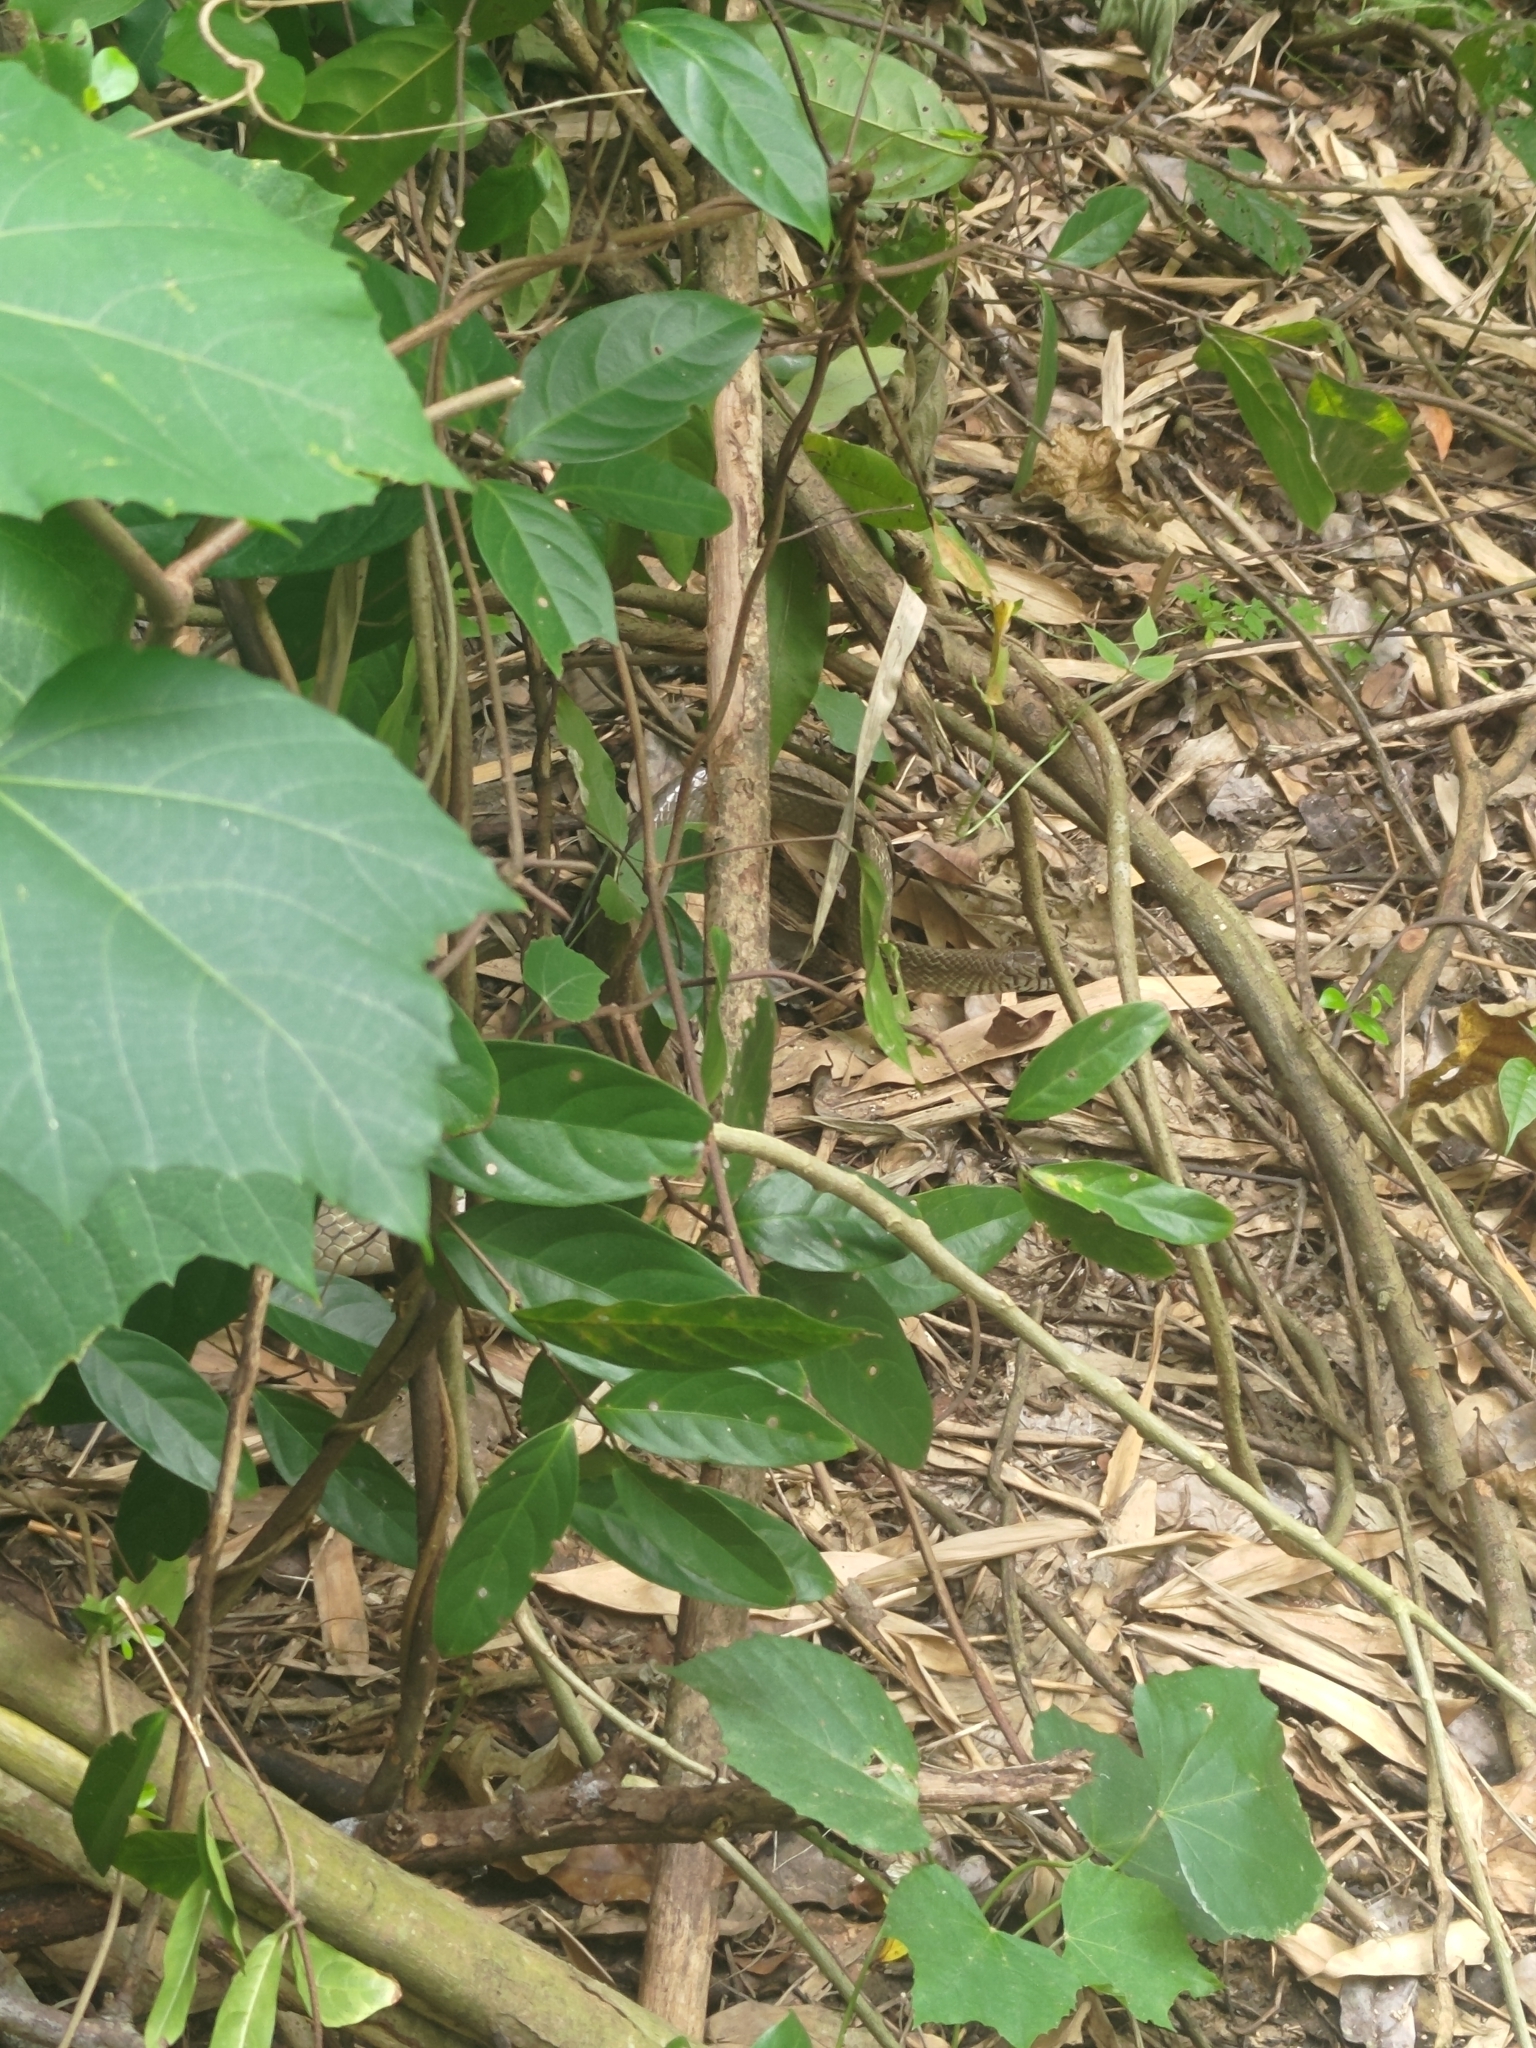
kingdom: Animalia
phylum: Chordata
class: Squamata
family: Colubridae
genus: Ptyas
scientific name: Ptyas mucosa
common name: Oriental ratsnake
